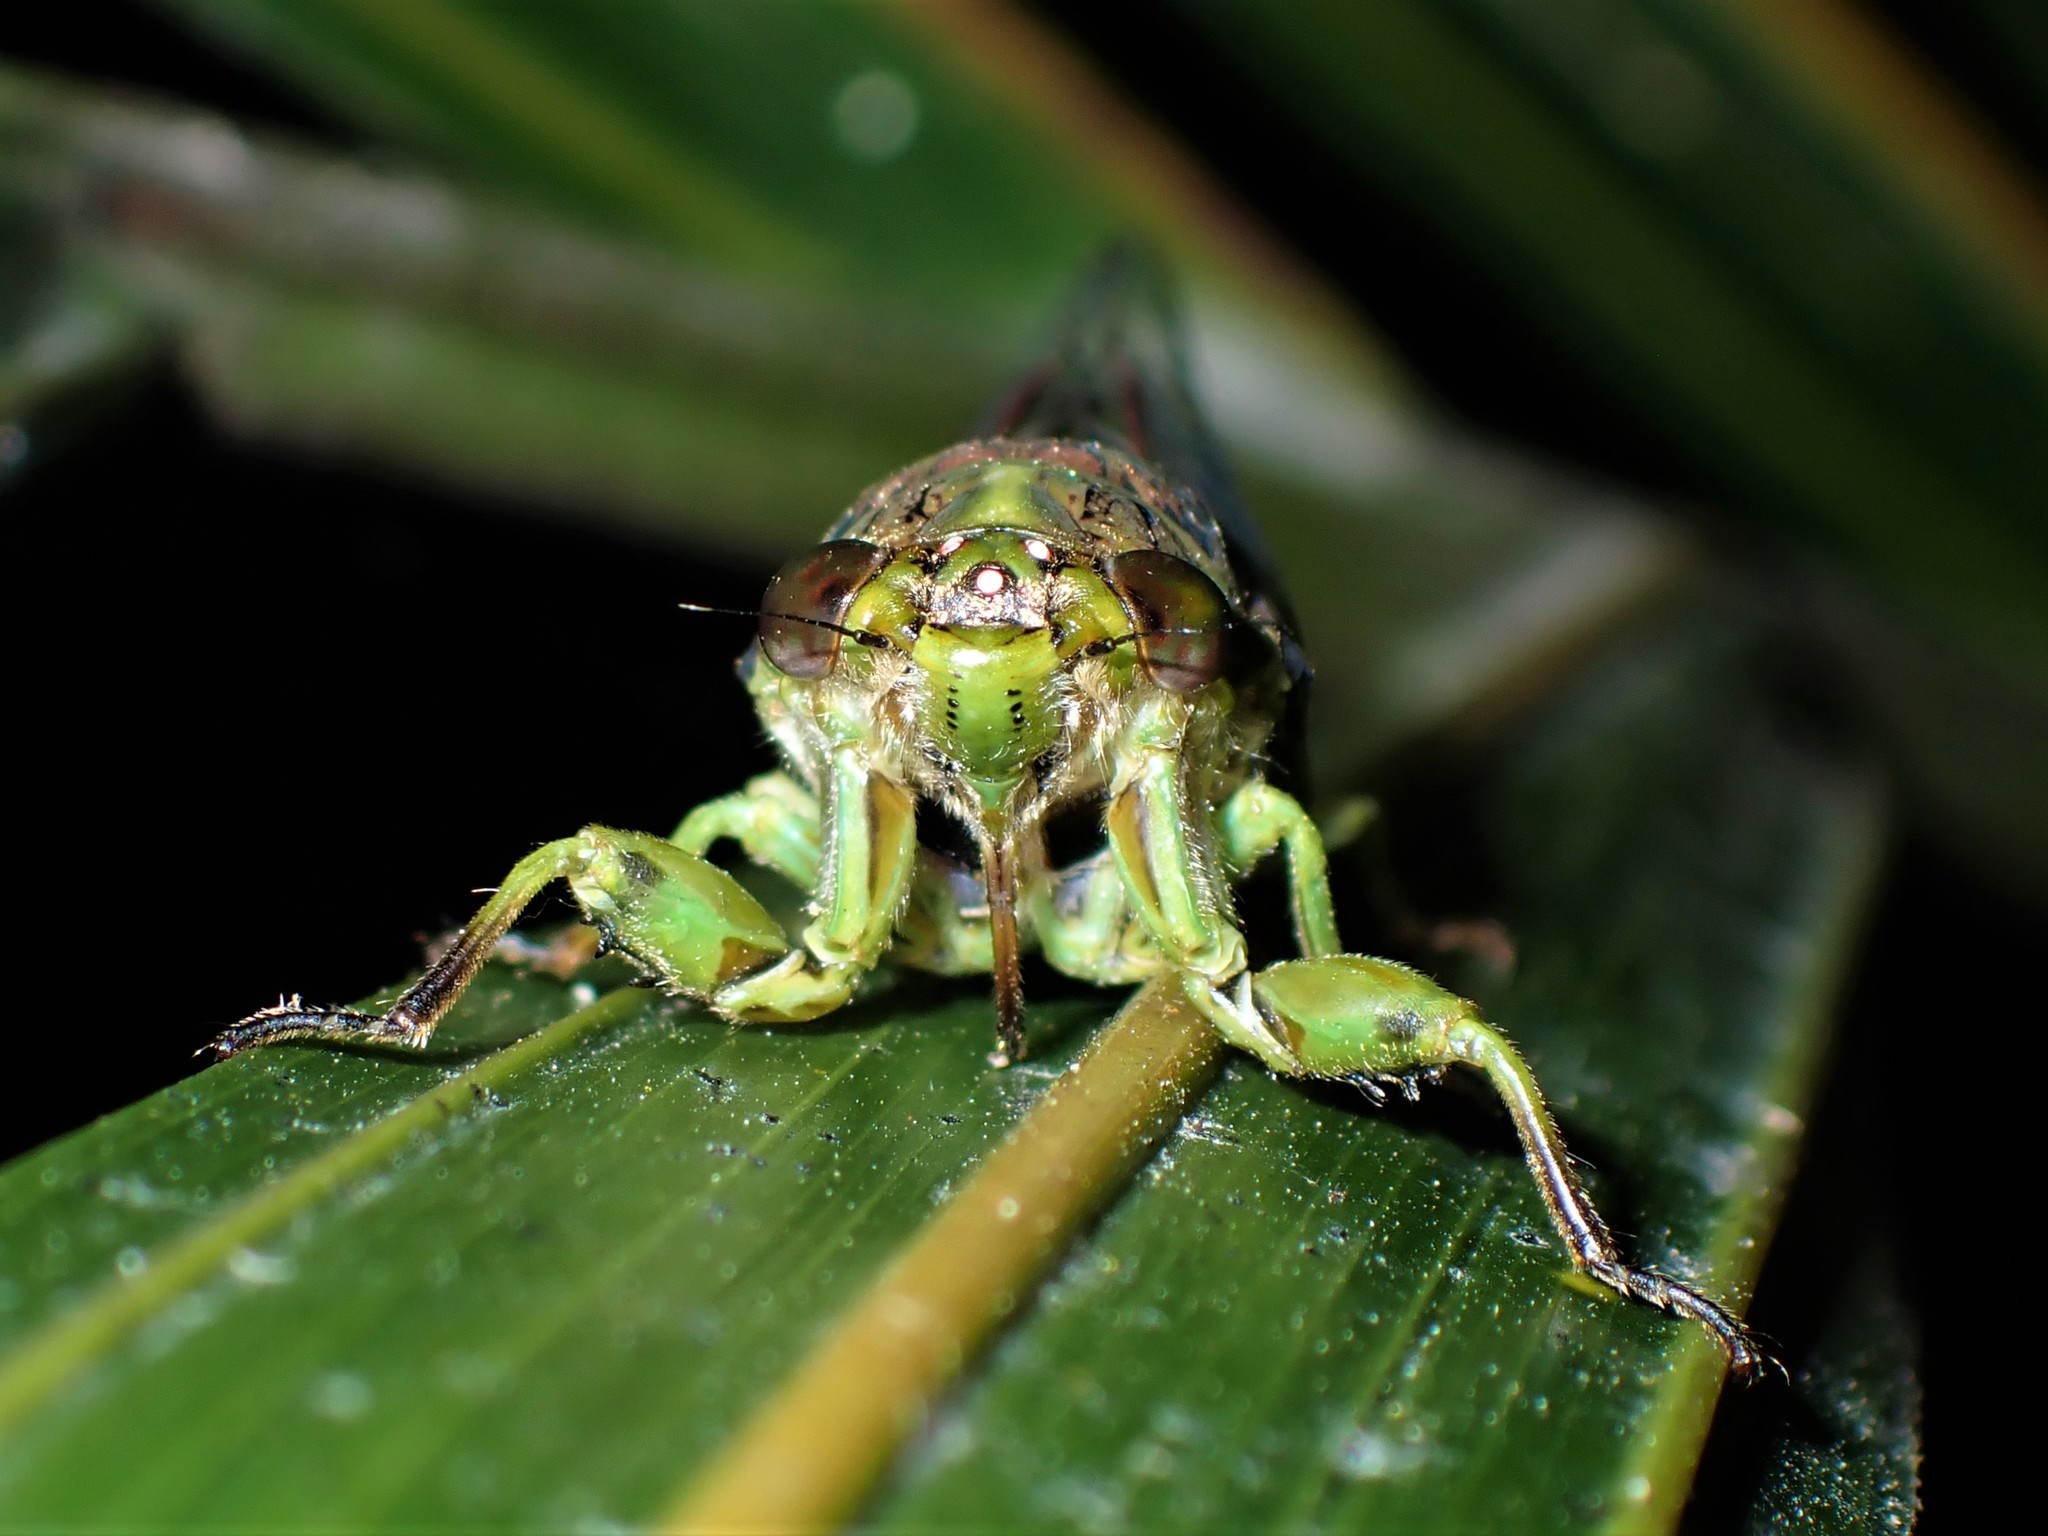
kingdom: Animalia
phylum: Arthropoda
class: Insecta
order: Hemiptera
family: Cicadidae
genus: Kikihia
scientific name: Kikihia scutellaris
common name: Lesser bronze cicada
